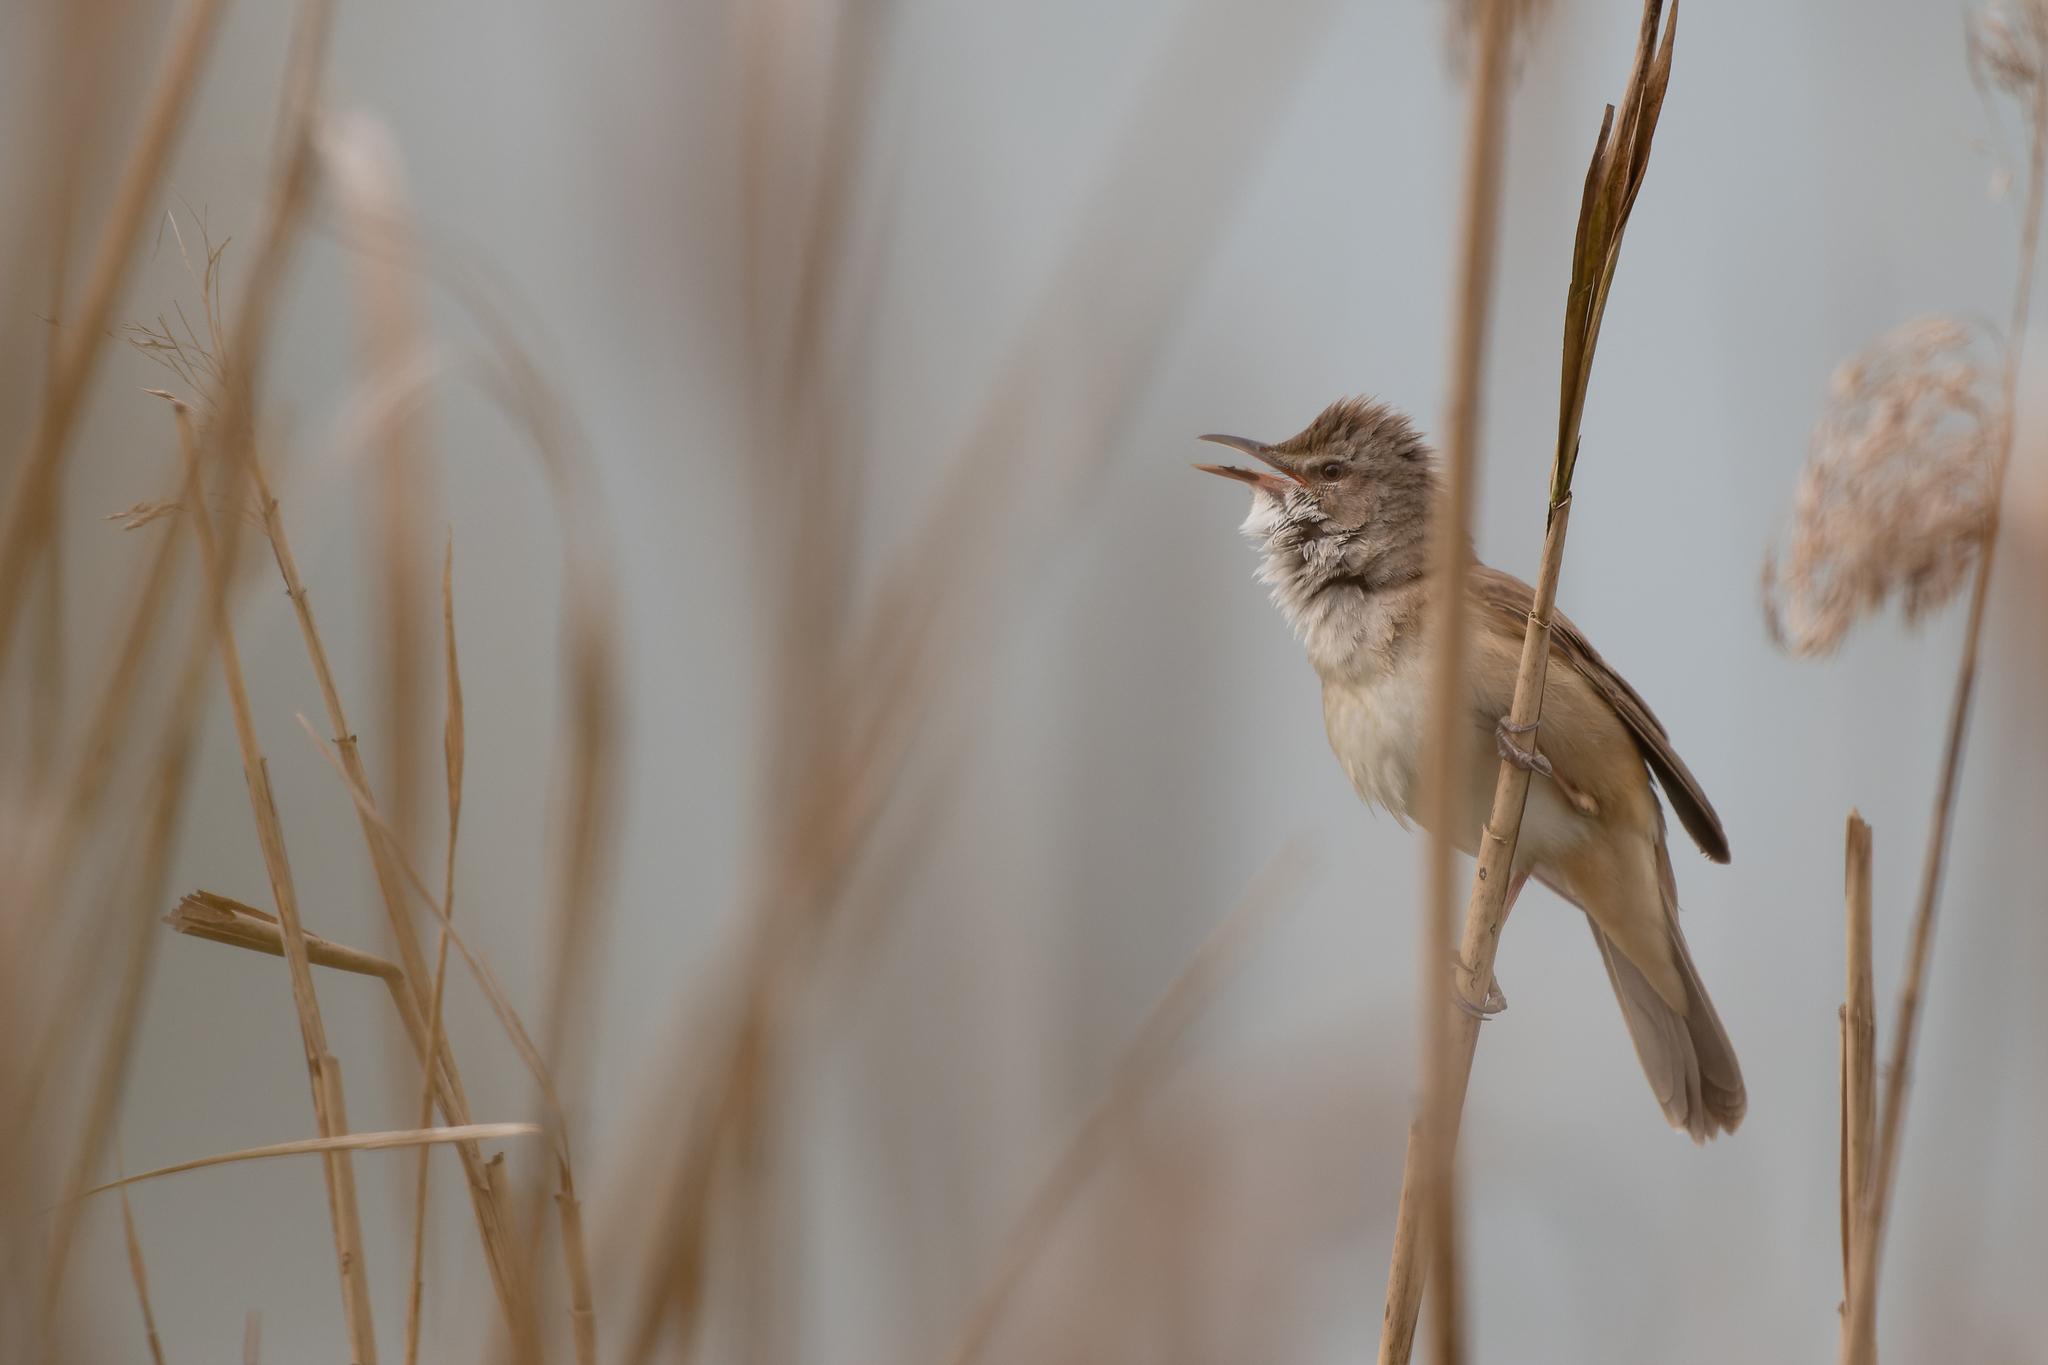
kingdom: Animalia
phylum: Chordata
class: Aves
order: Passeriformes
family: Acrocephalidae
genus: Acrocephalus
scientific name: Acrocephalus arundinaceus
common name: Great reed warbler
